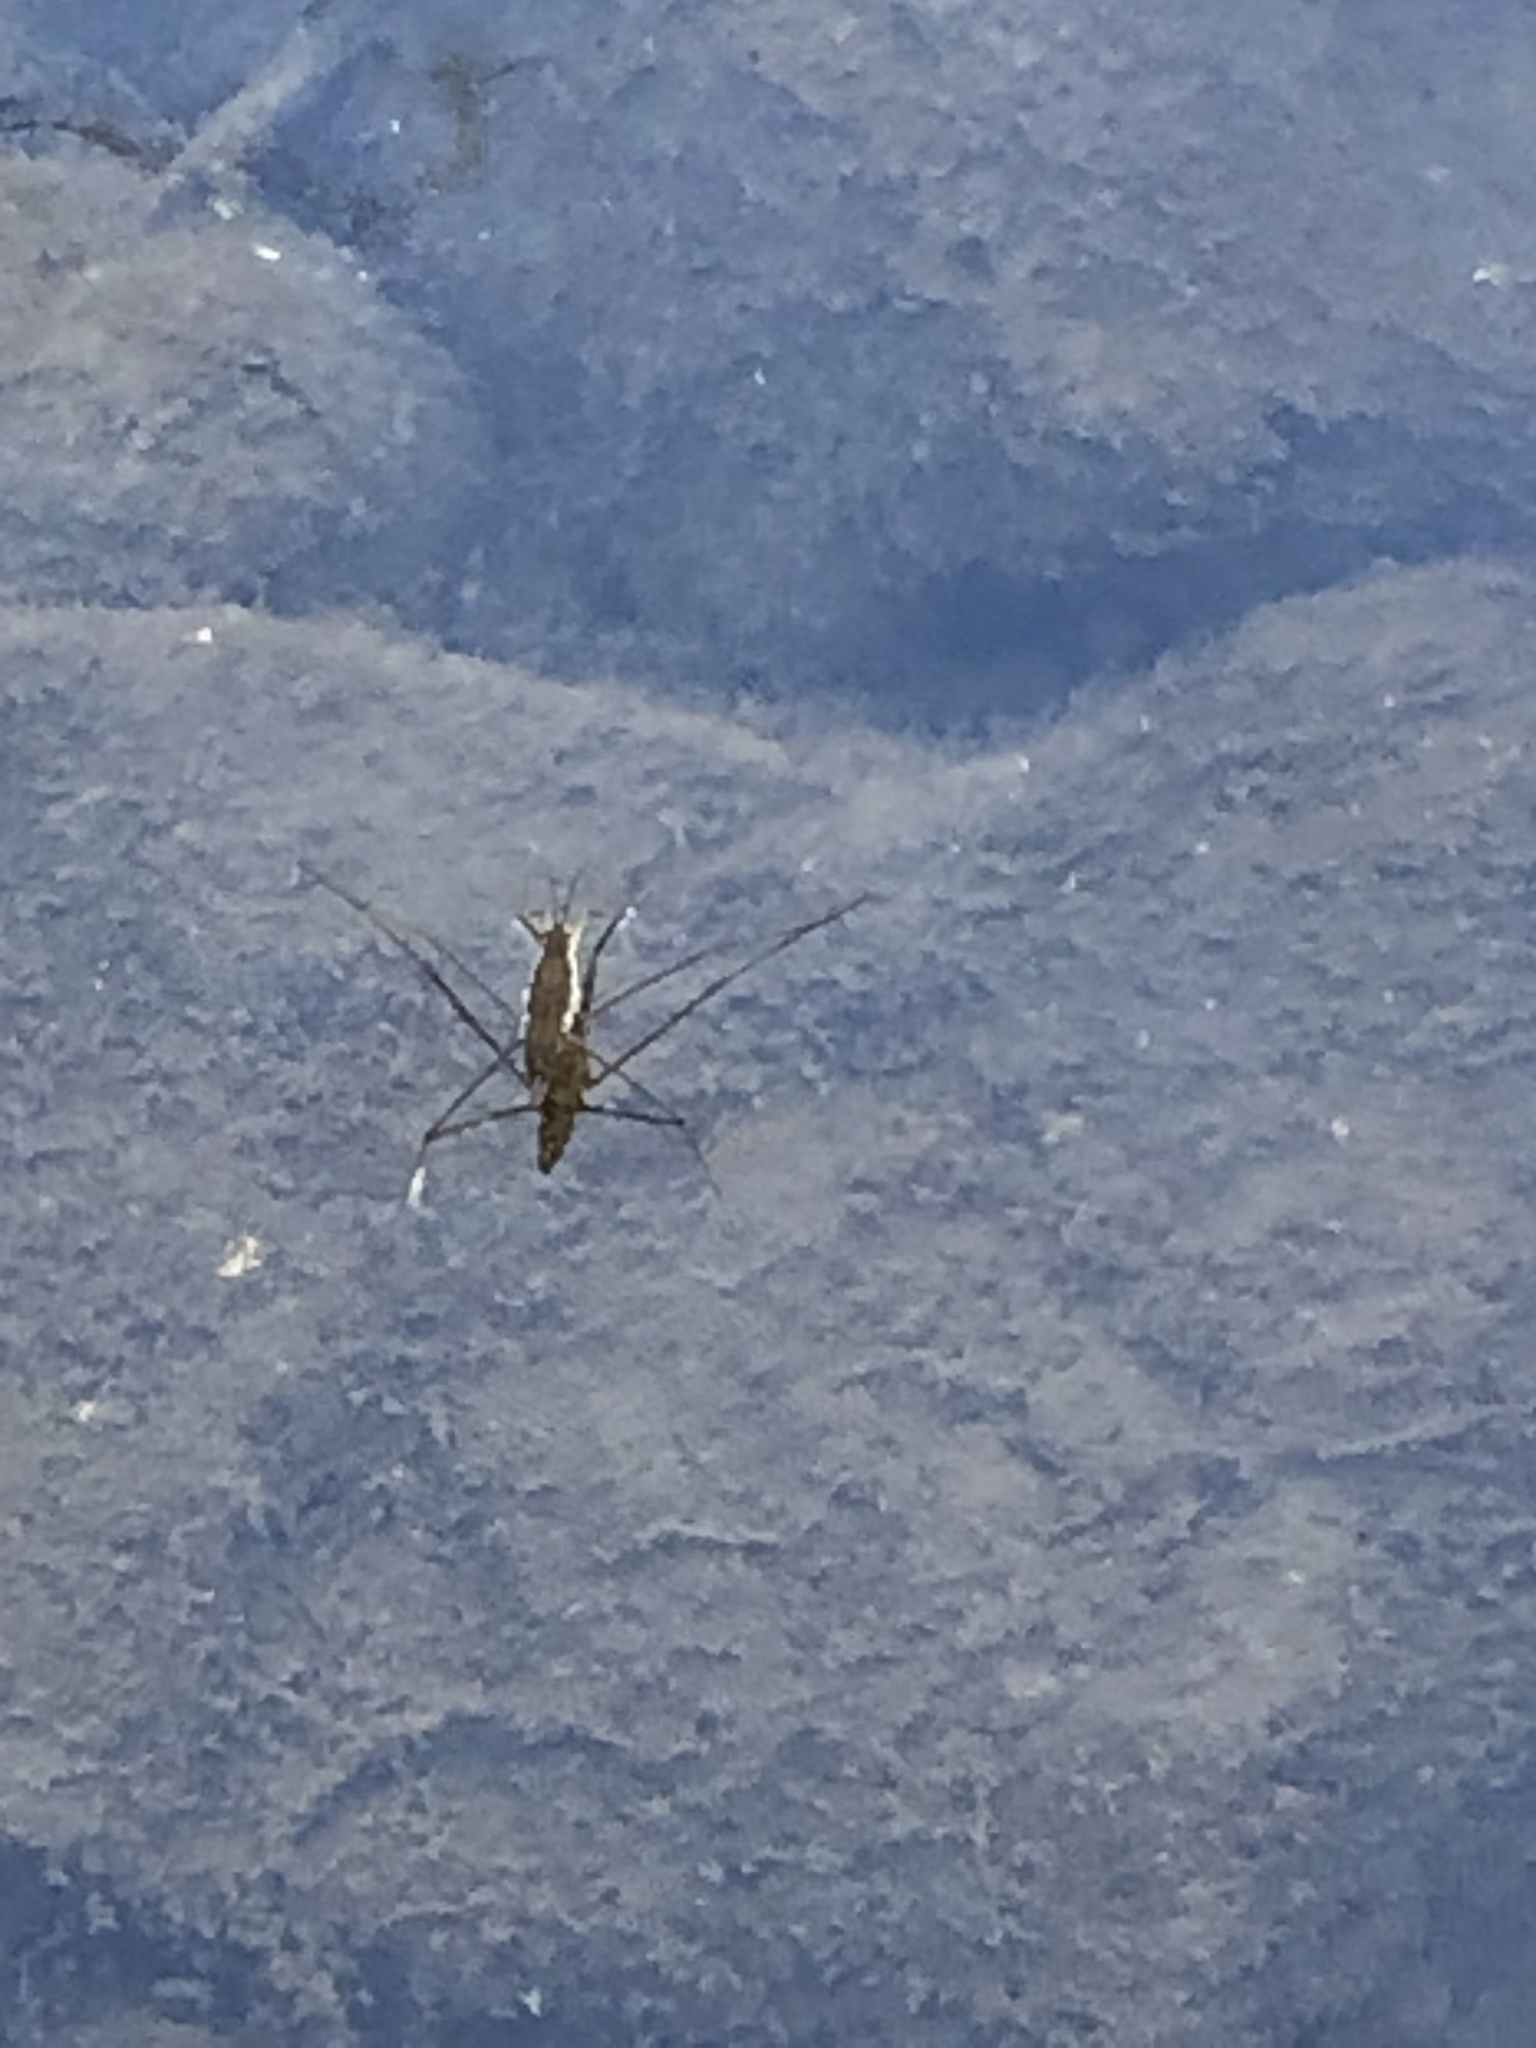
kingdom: Animalia
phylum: Arthropoda
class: Insecta
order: Hemiptera
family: Gerridae
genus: Aquarius
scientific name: Aquarius remigis
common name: Common water strider
